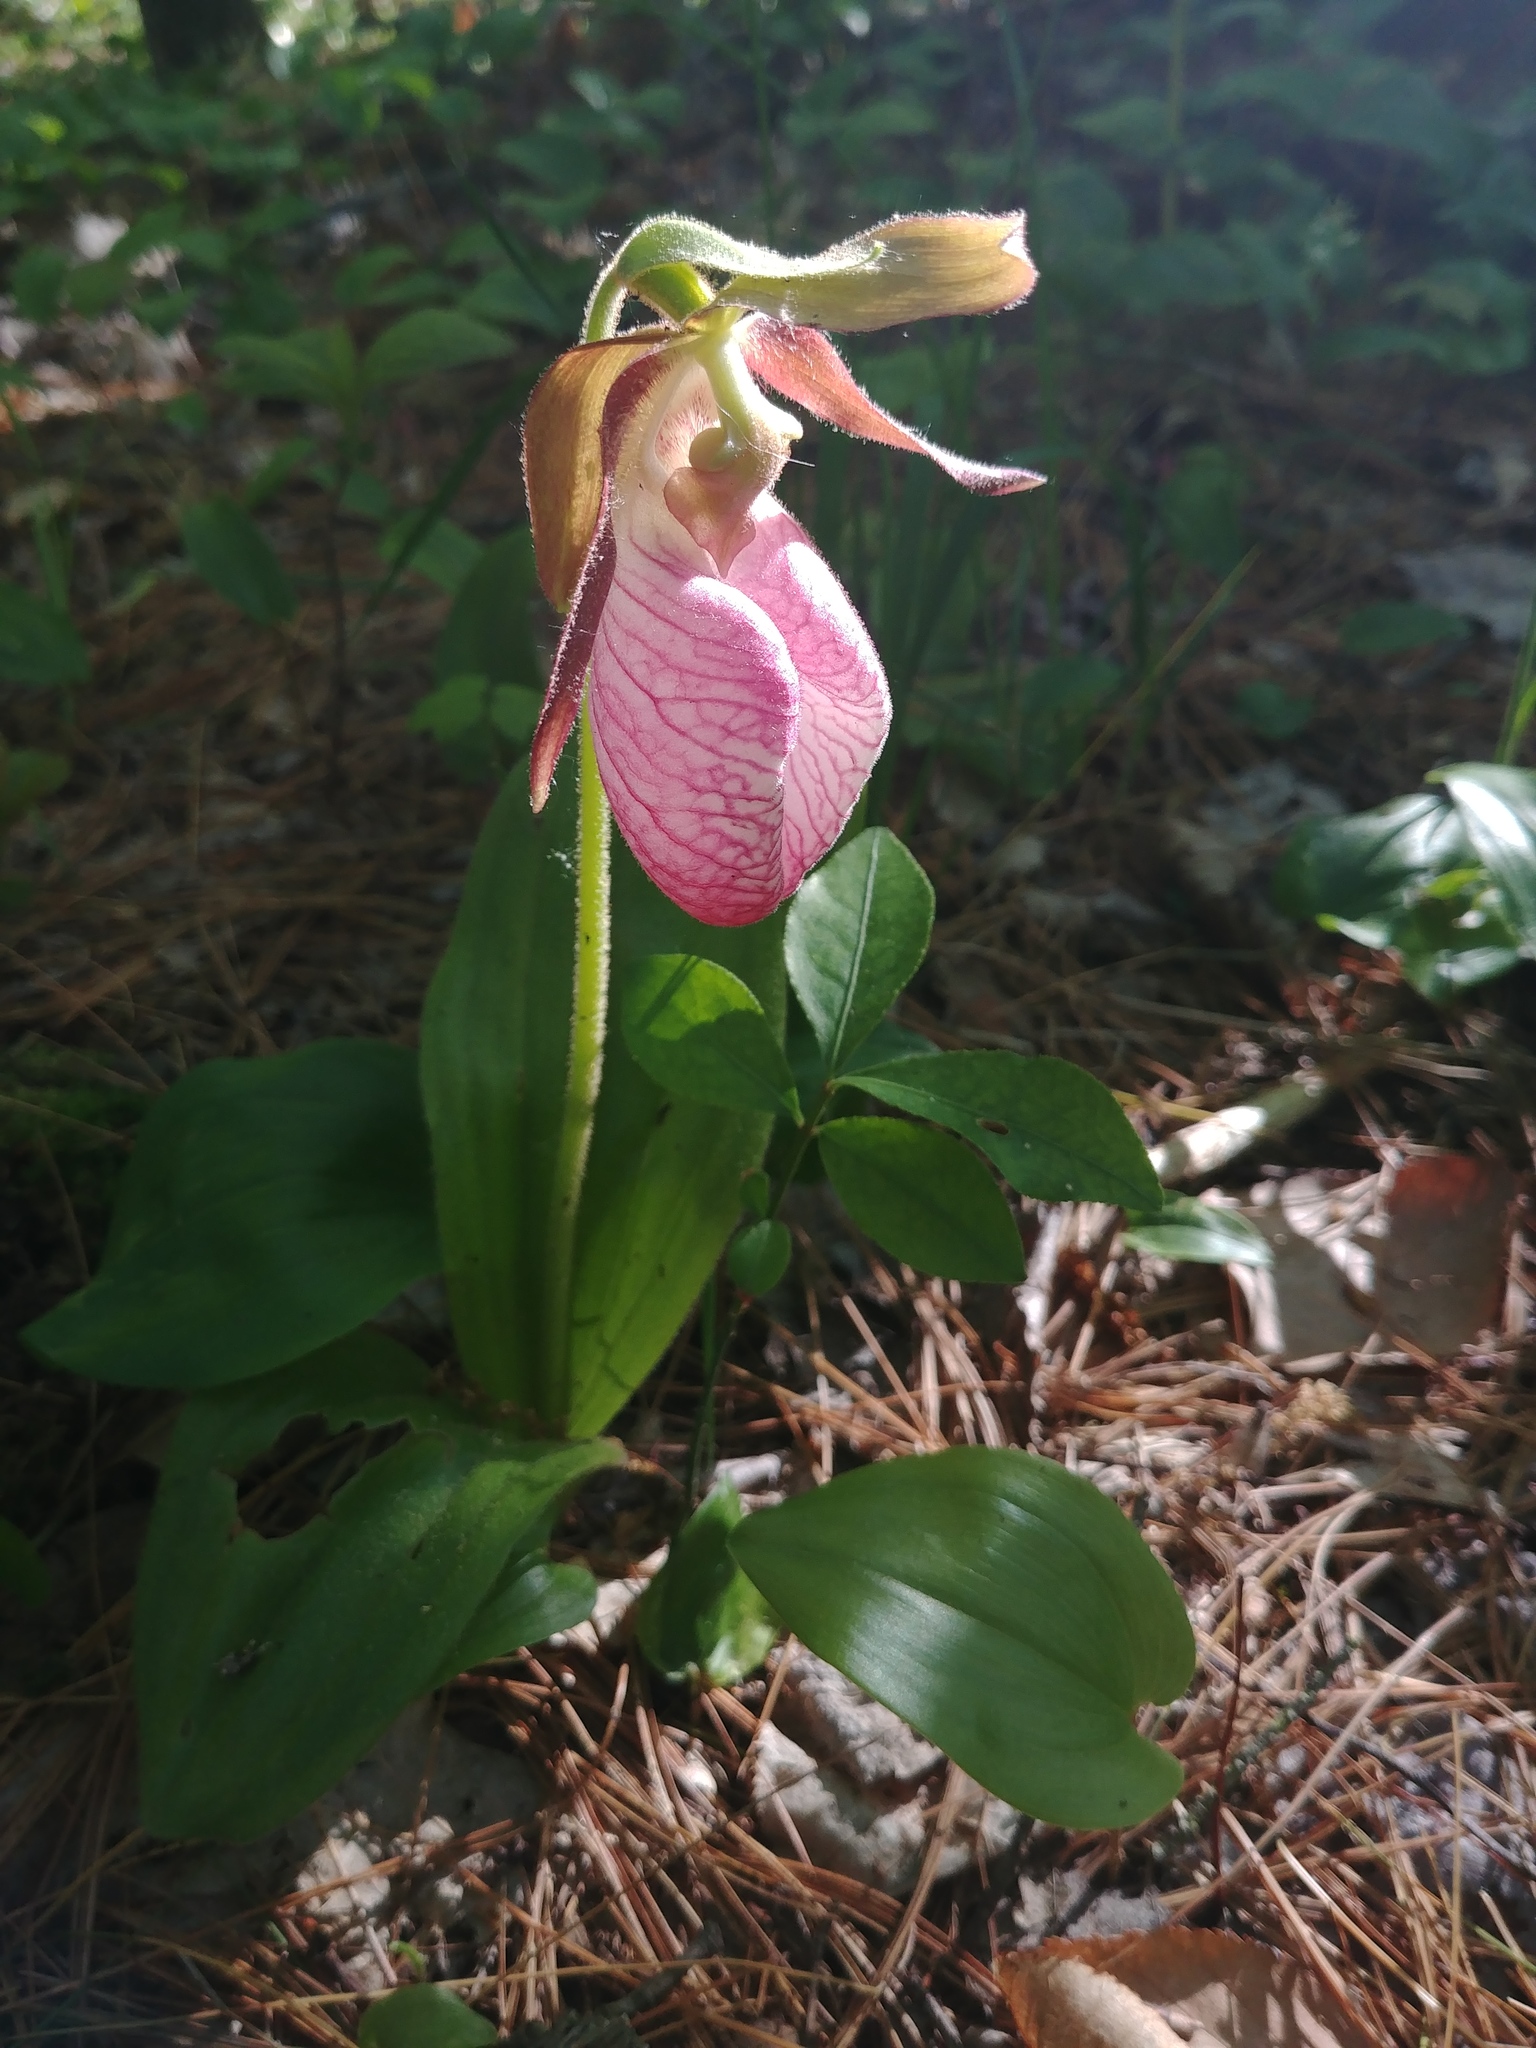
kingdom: Plantae
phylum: Tracheophyta
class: Liliopsida
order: Asparagales
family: Orchidaceae
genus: Cypripedium
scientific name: Cypripedium acaule
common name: Pink lady's-slipper
